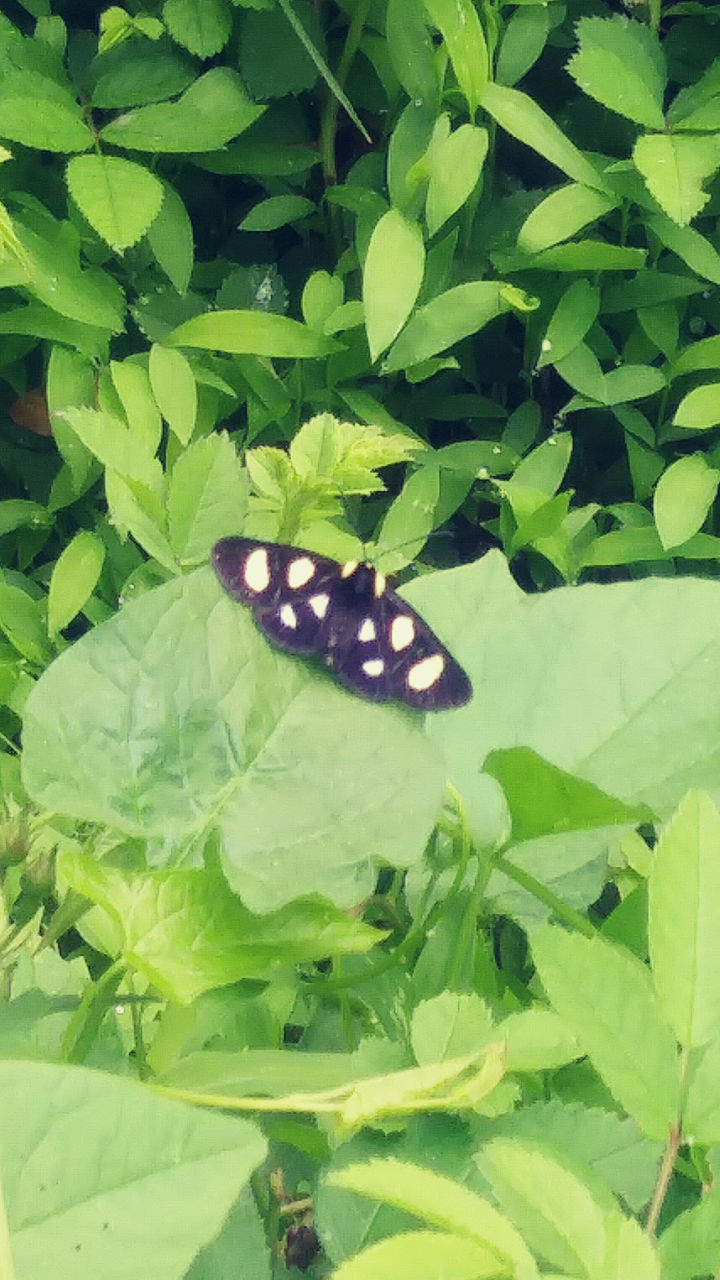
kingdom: Animalia
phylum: Arthropoda
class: Insecta
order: Lepidoptera
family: Noctuidae
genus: Alypia
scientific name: Alypia octomaculata
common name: Eight-spotted forester
